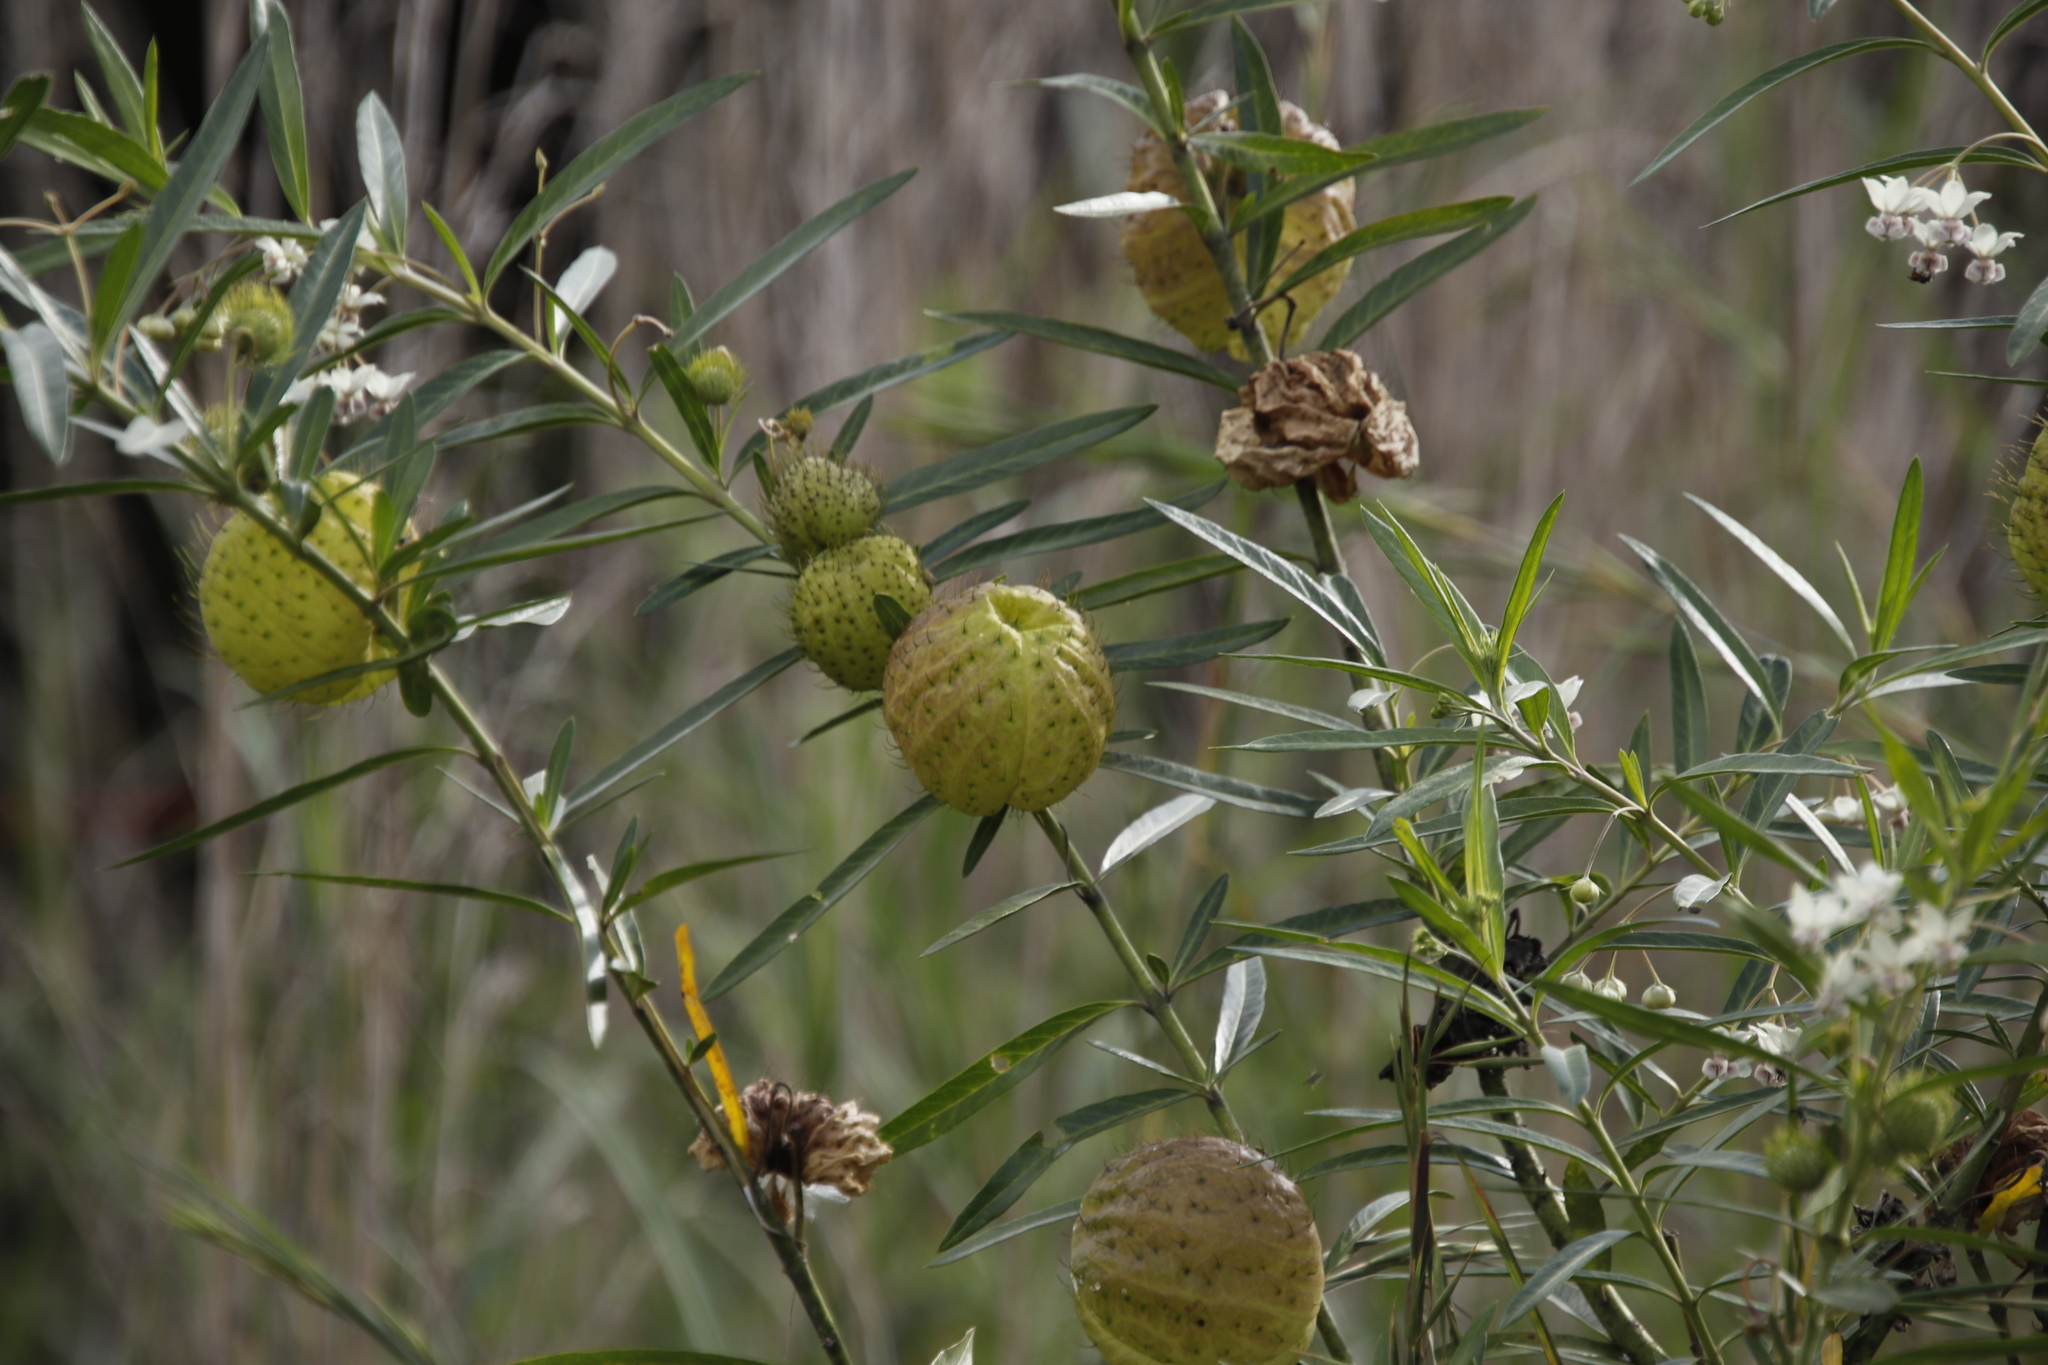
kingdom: Plantae
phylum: Tracheophyta
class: Magnoliopsida
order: Gentianales
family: Apocynaceae
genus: Gomphocarpus
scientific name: Gomphocarpus physocarpus
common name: Balloon cotton bush
